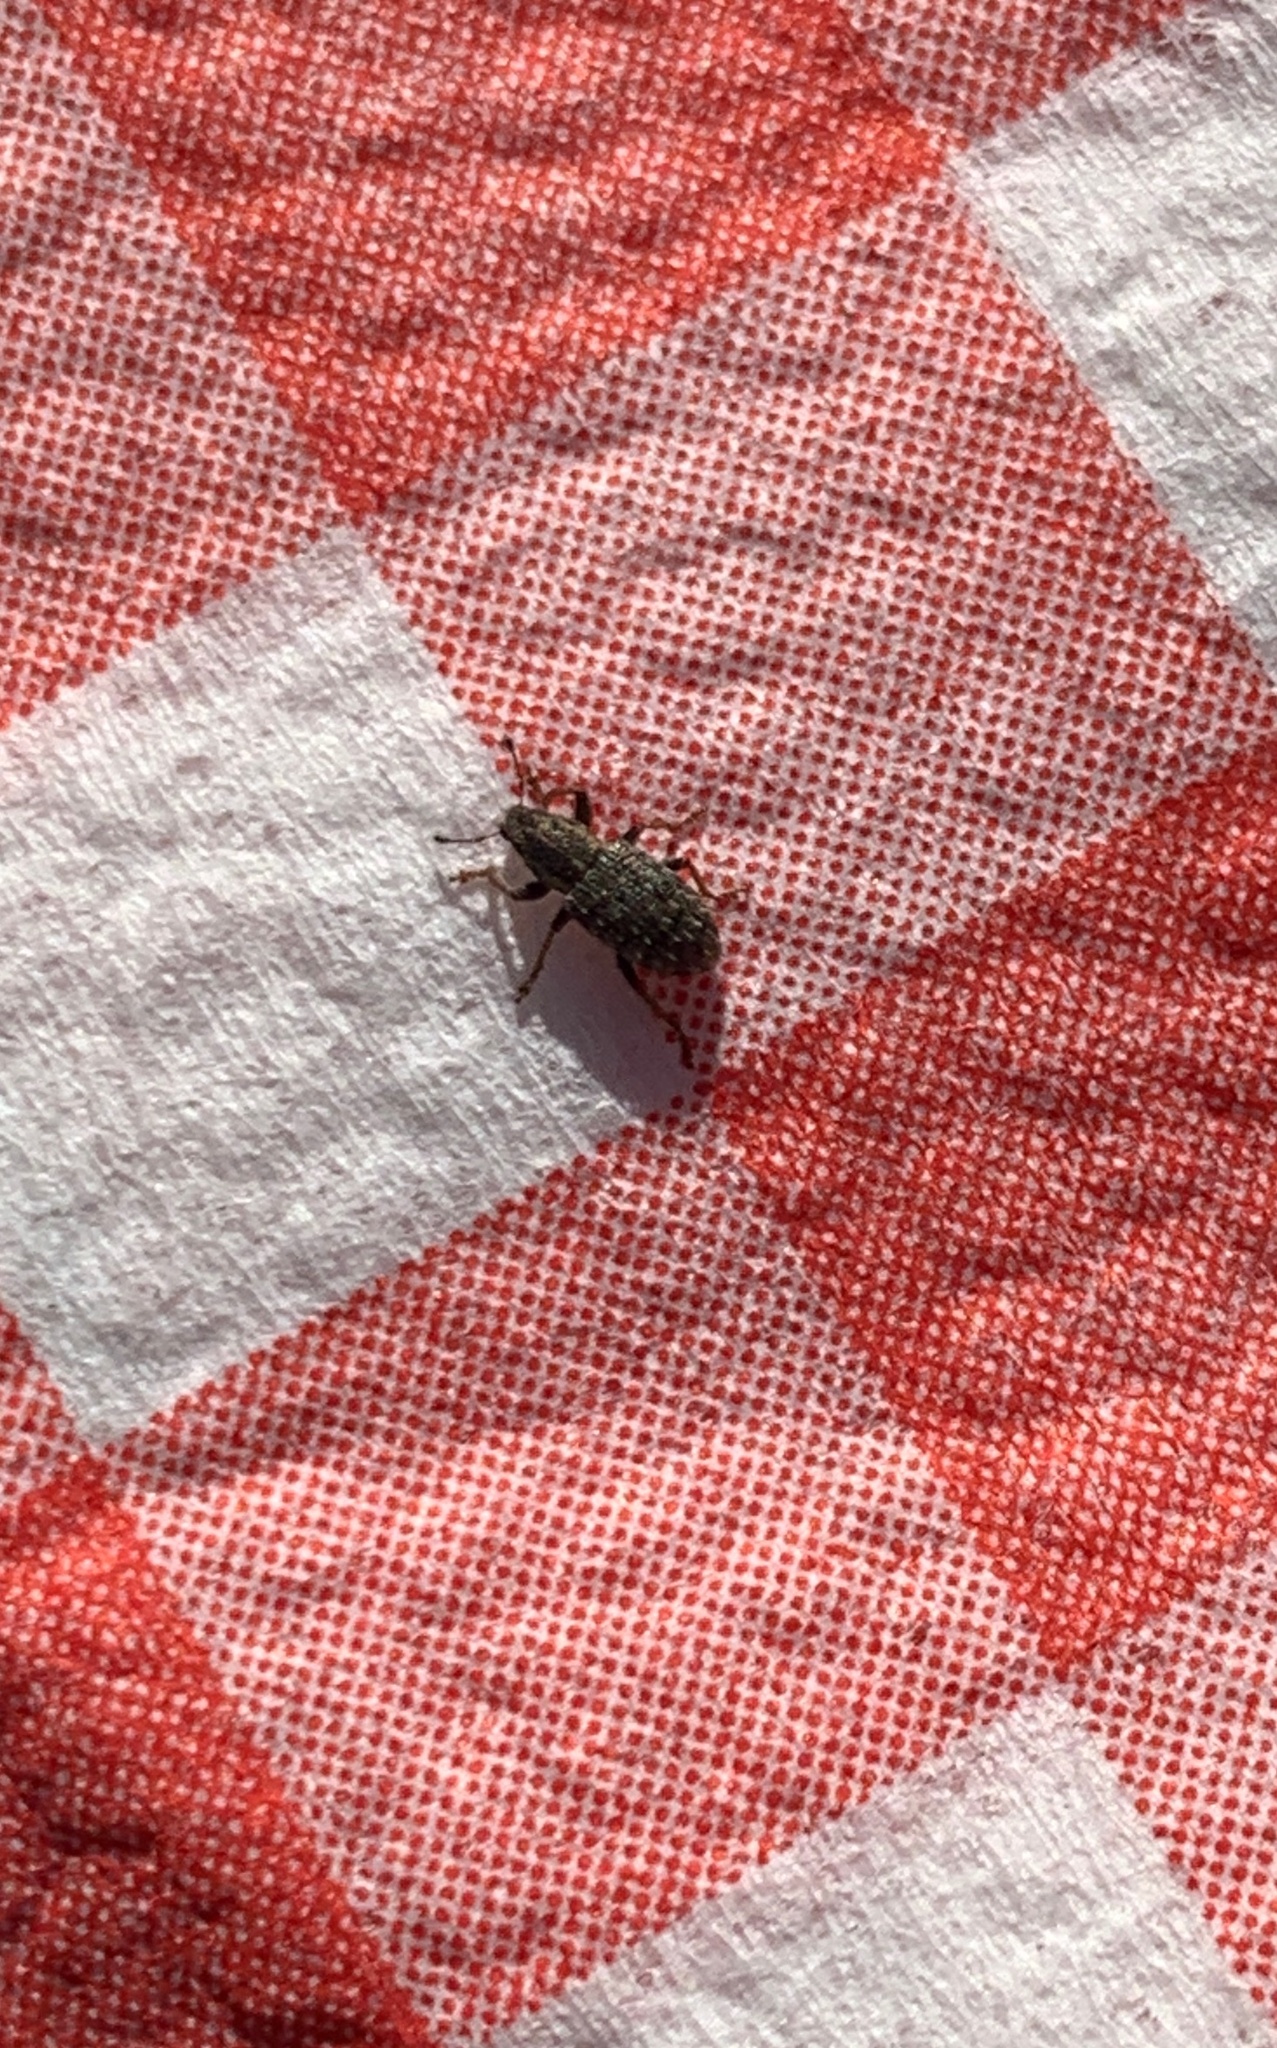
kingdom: Animalia
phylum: Arthropoda
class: Insecta
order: Coleoptera
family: Curculionidae
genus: Sitona
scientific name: Sitona hispidulus
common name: Clover weevil
